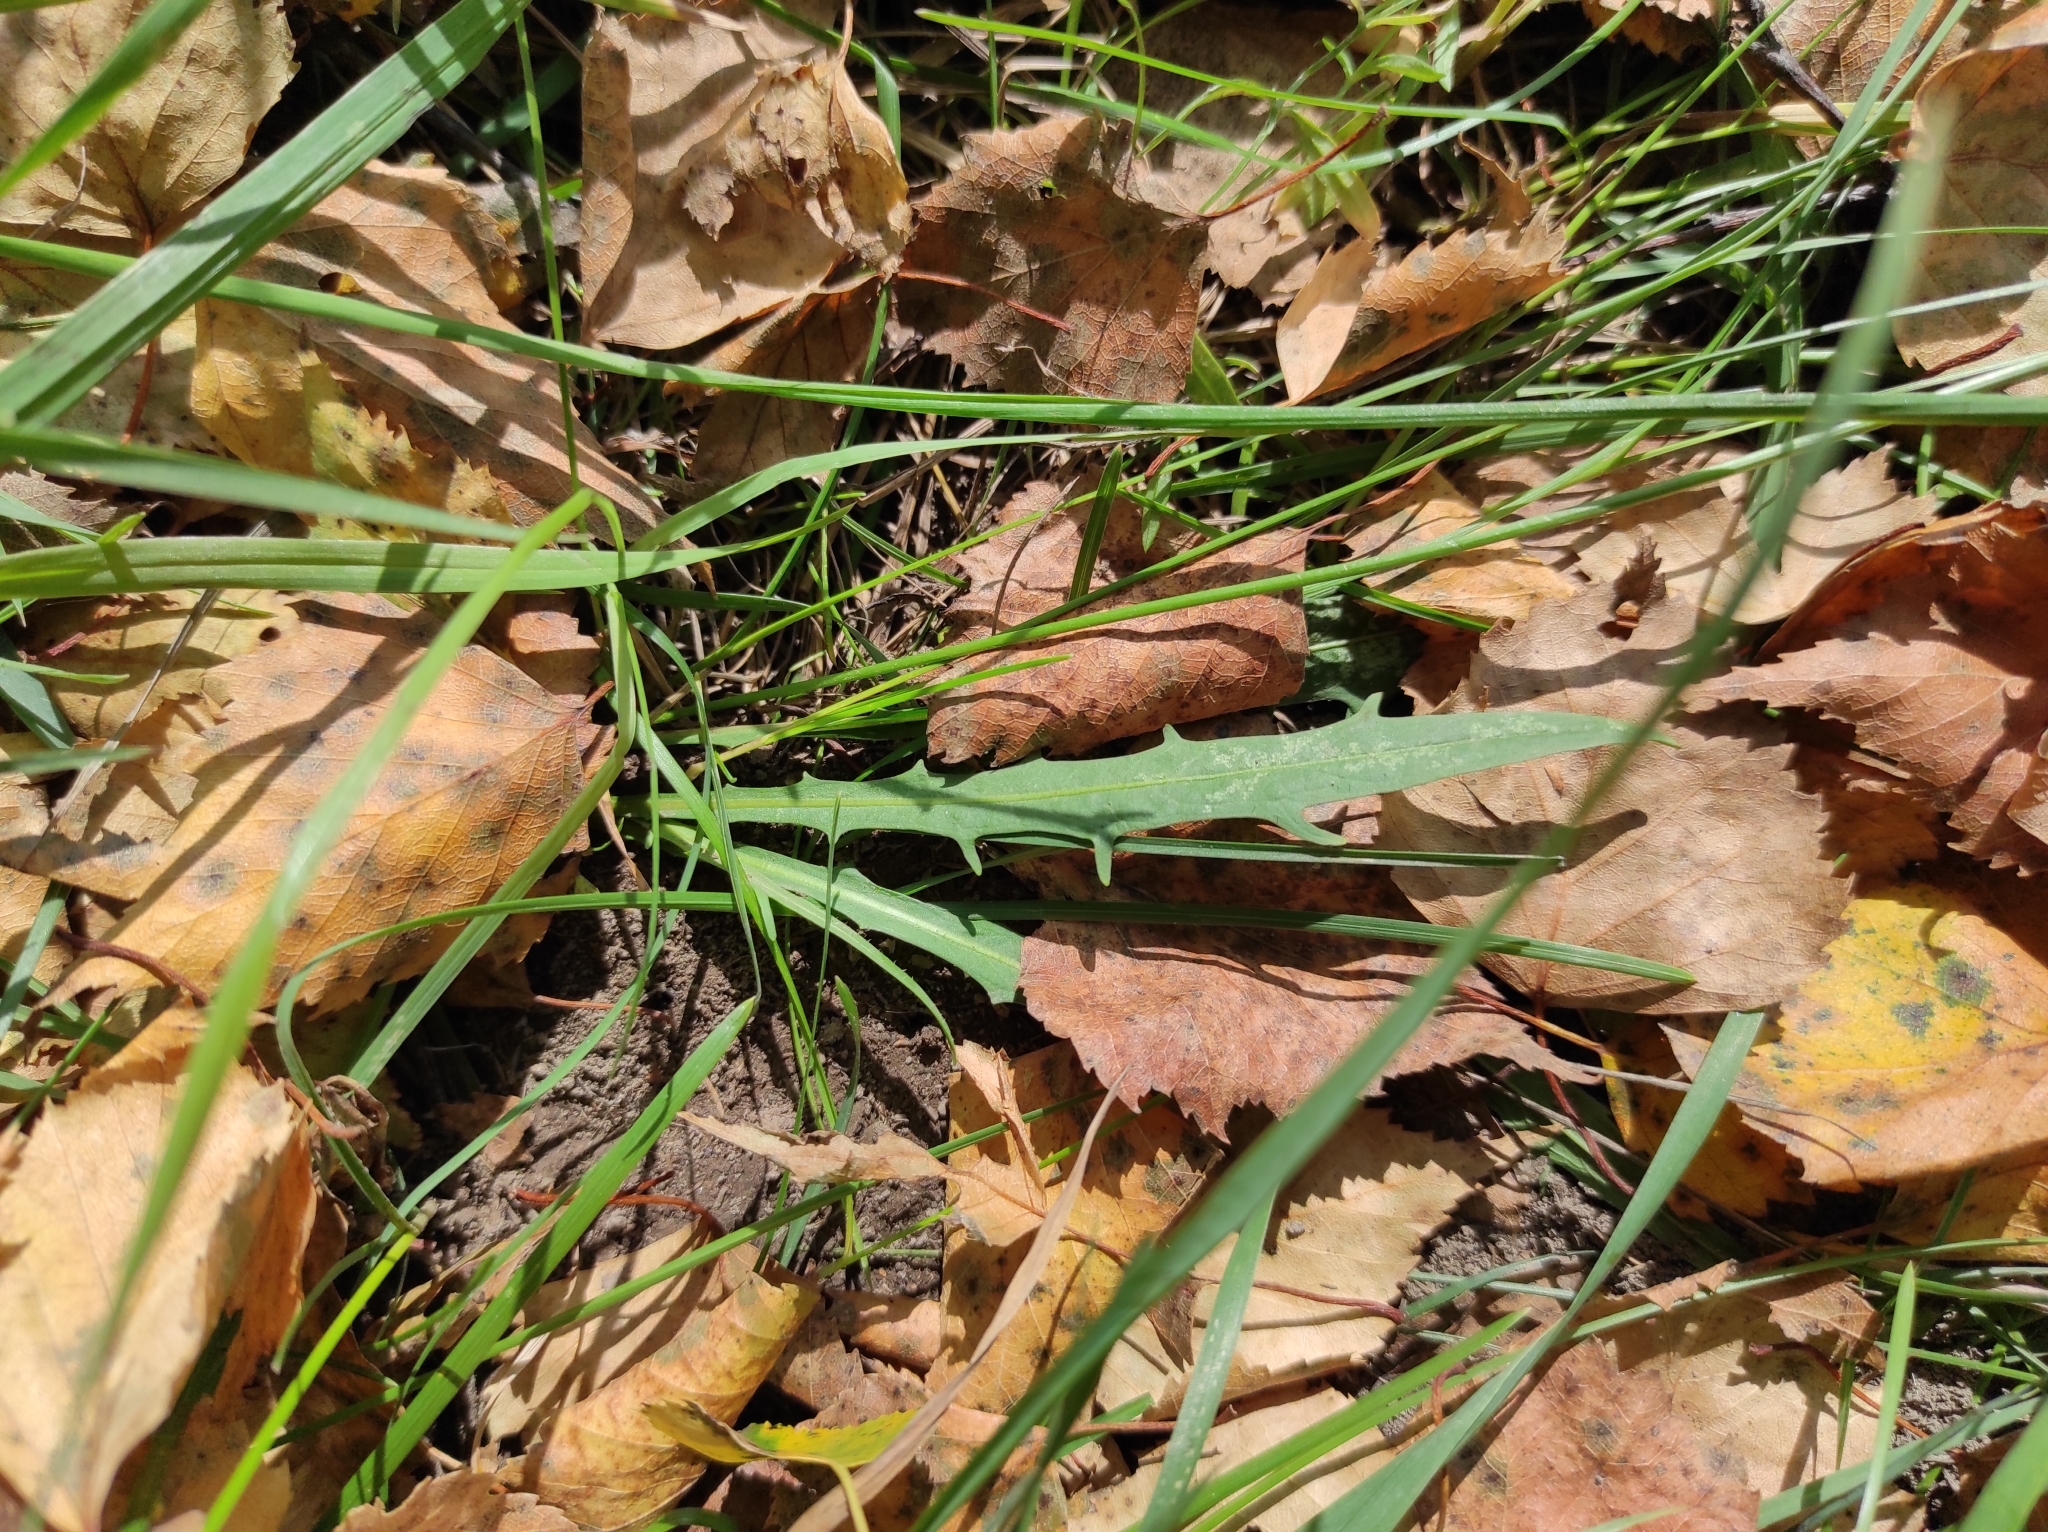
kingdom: Plantae
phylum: Tracheophyta
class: Magnoliopsida
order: Asterales
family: Asteraceae
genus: Scorzoneroides
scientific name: Scorzoneroides autumnalis
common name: Autumn hawkbit
